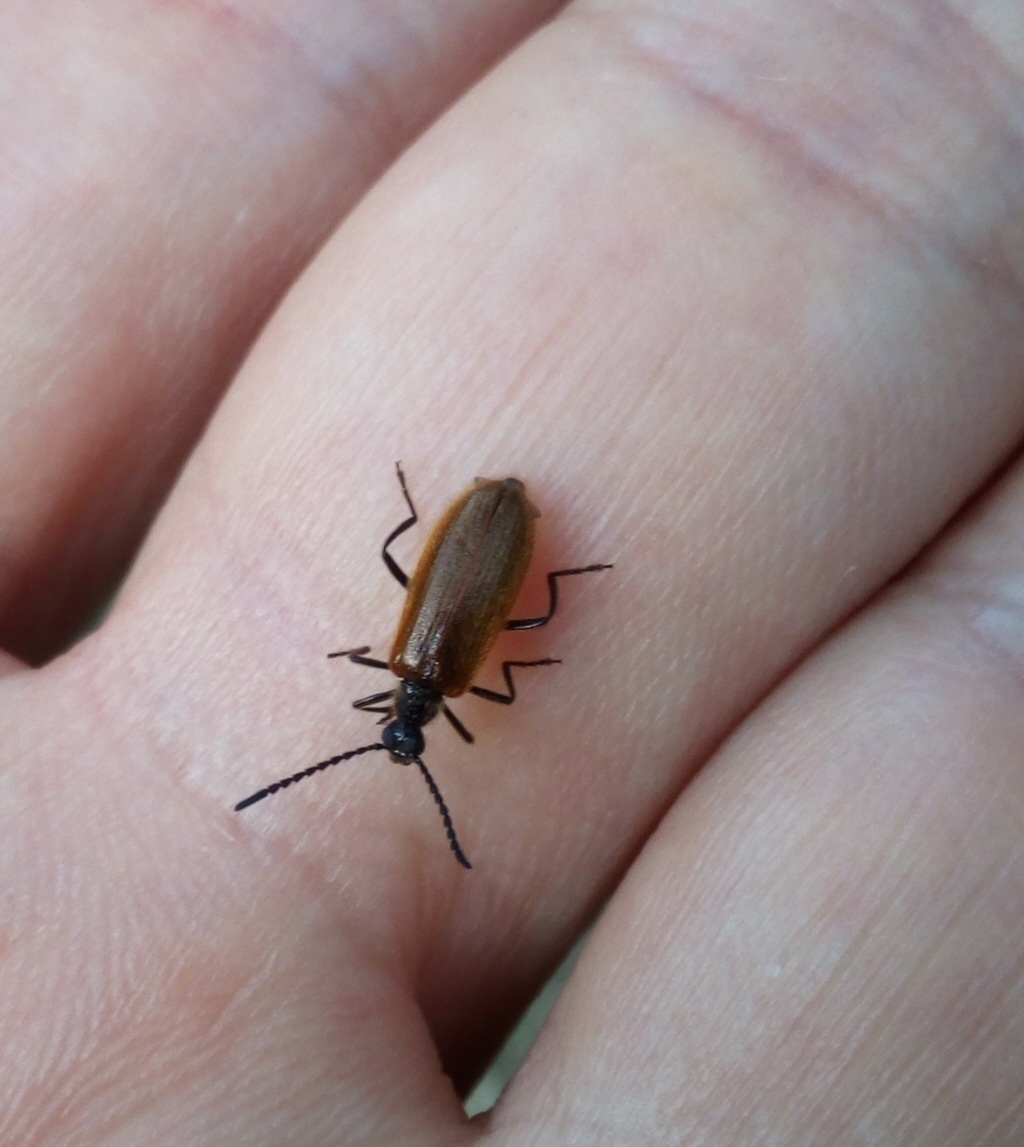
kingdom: Animalia
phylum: Arthropoda
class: Insecta
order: Coleoptera
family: Tenebrionidae
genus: Lagria
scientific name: Lagria hirta
